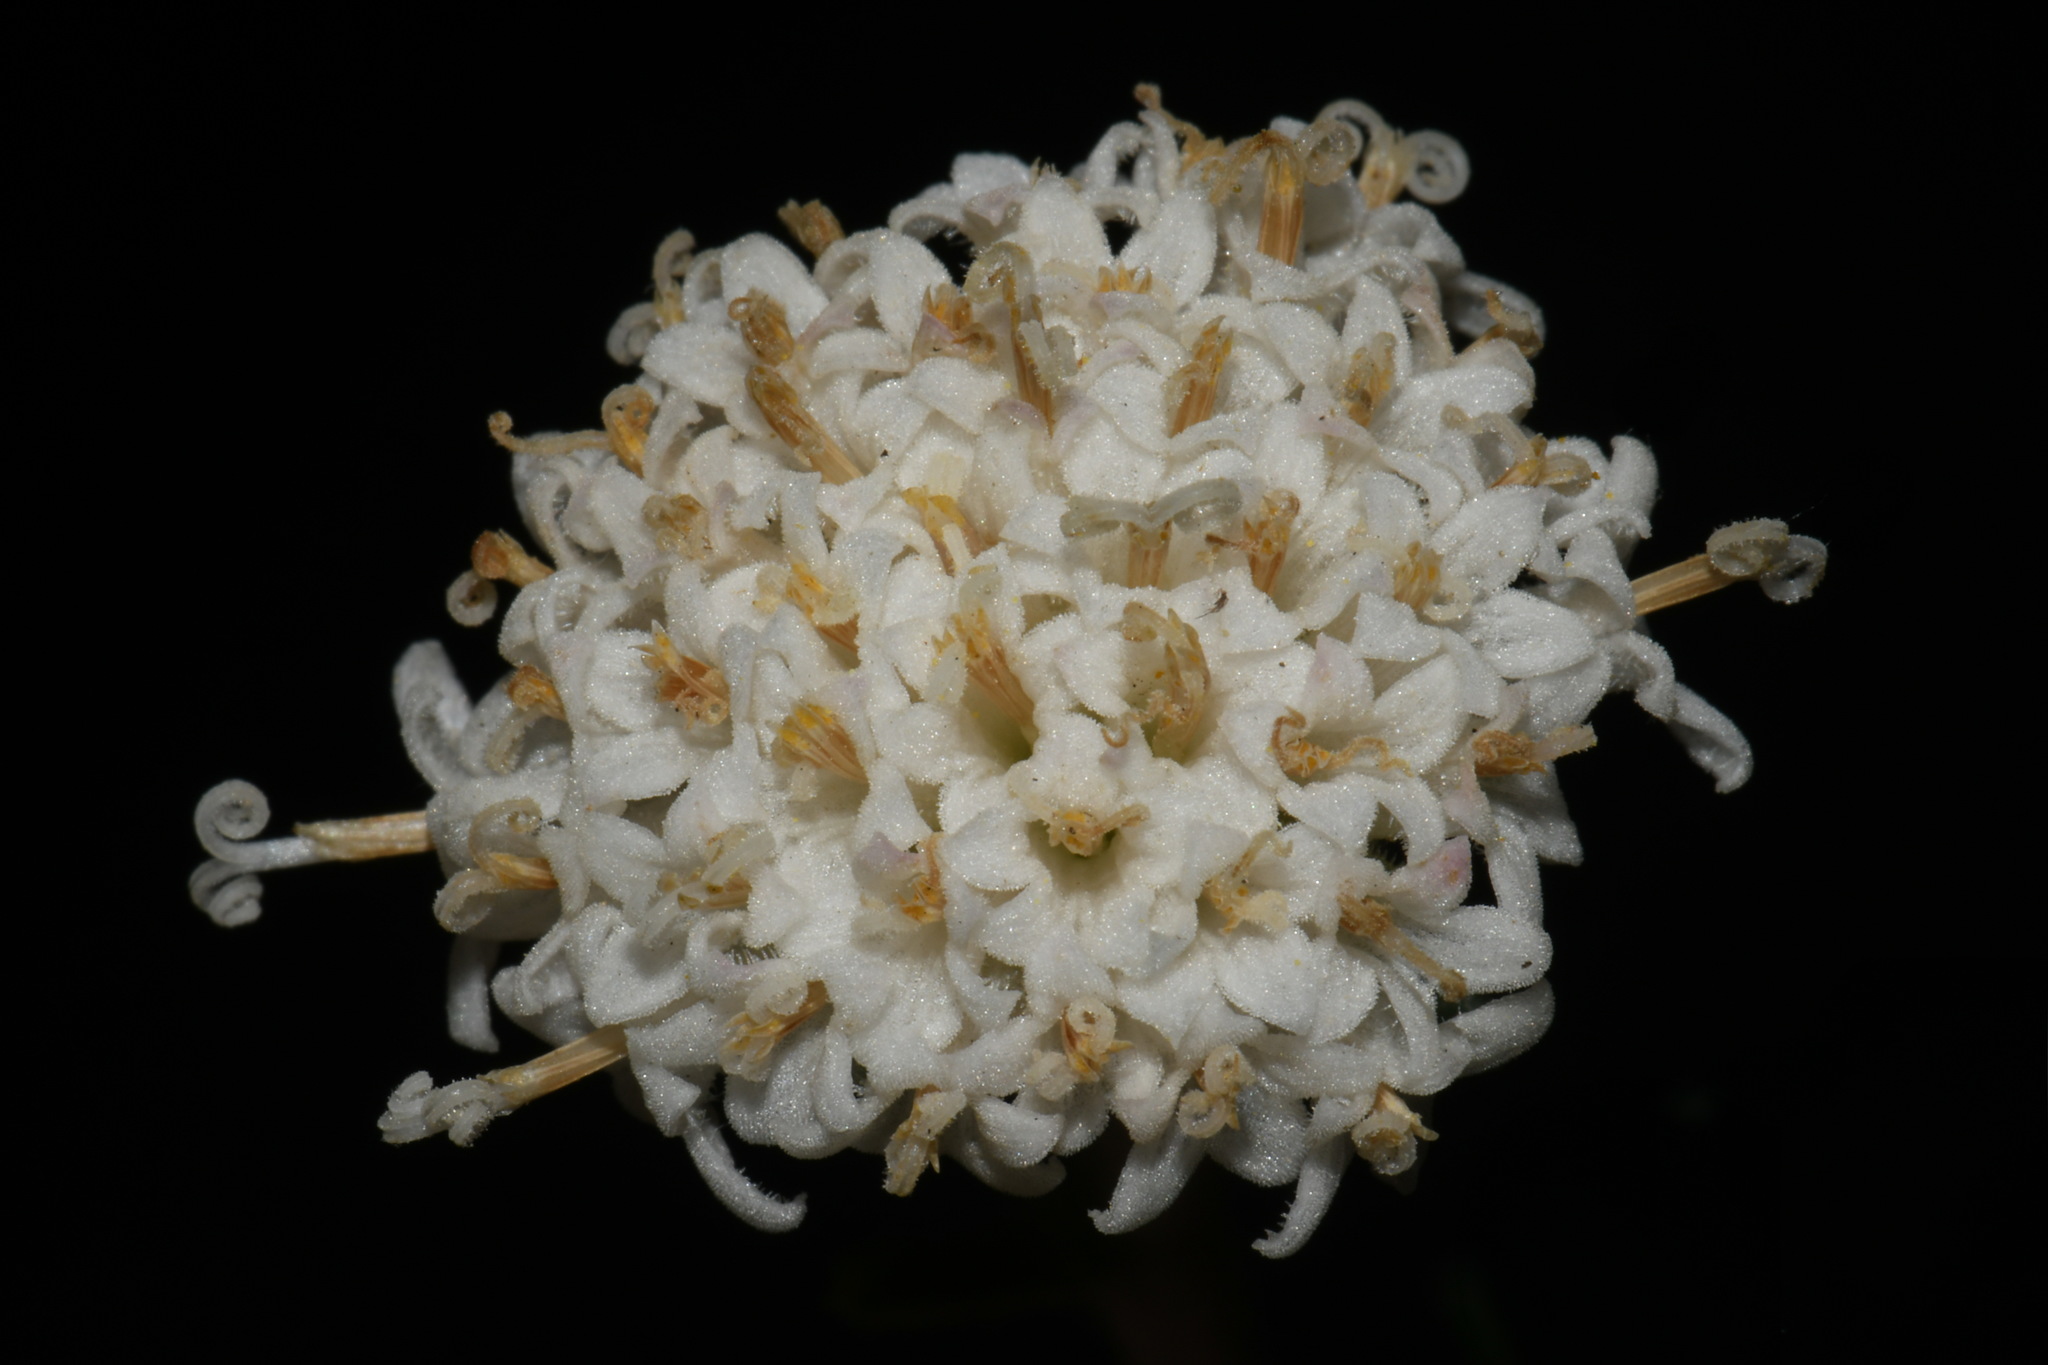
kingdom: Plantae
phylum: Tracheophyta
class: Magnoliopsida
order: Asterales
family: Asteraceae
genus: Chaenactis
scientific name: Chaenactis douglasii
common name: Hoary pincushion
